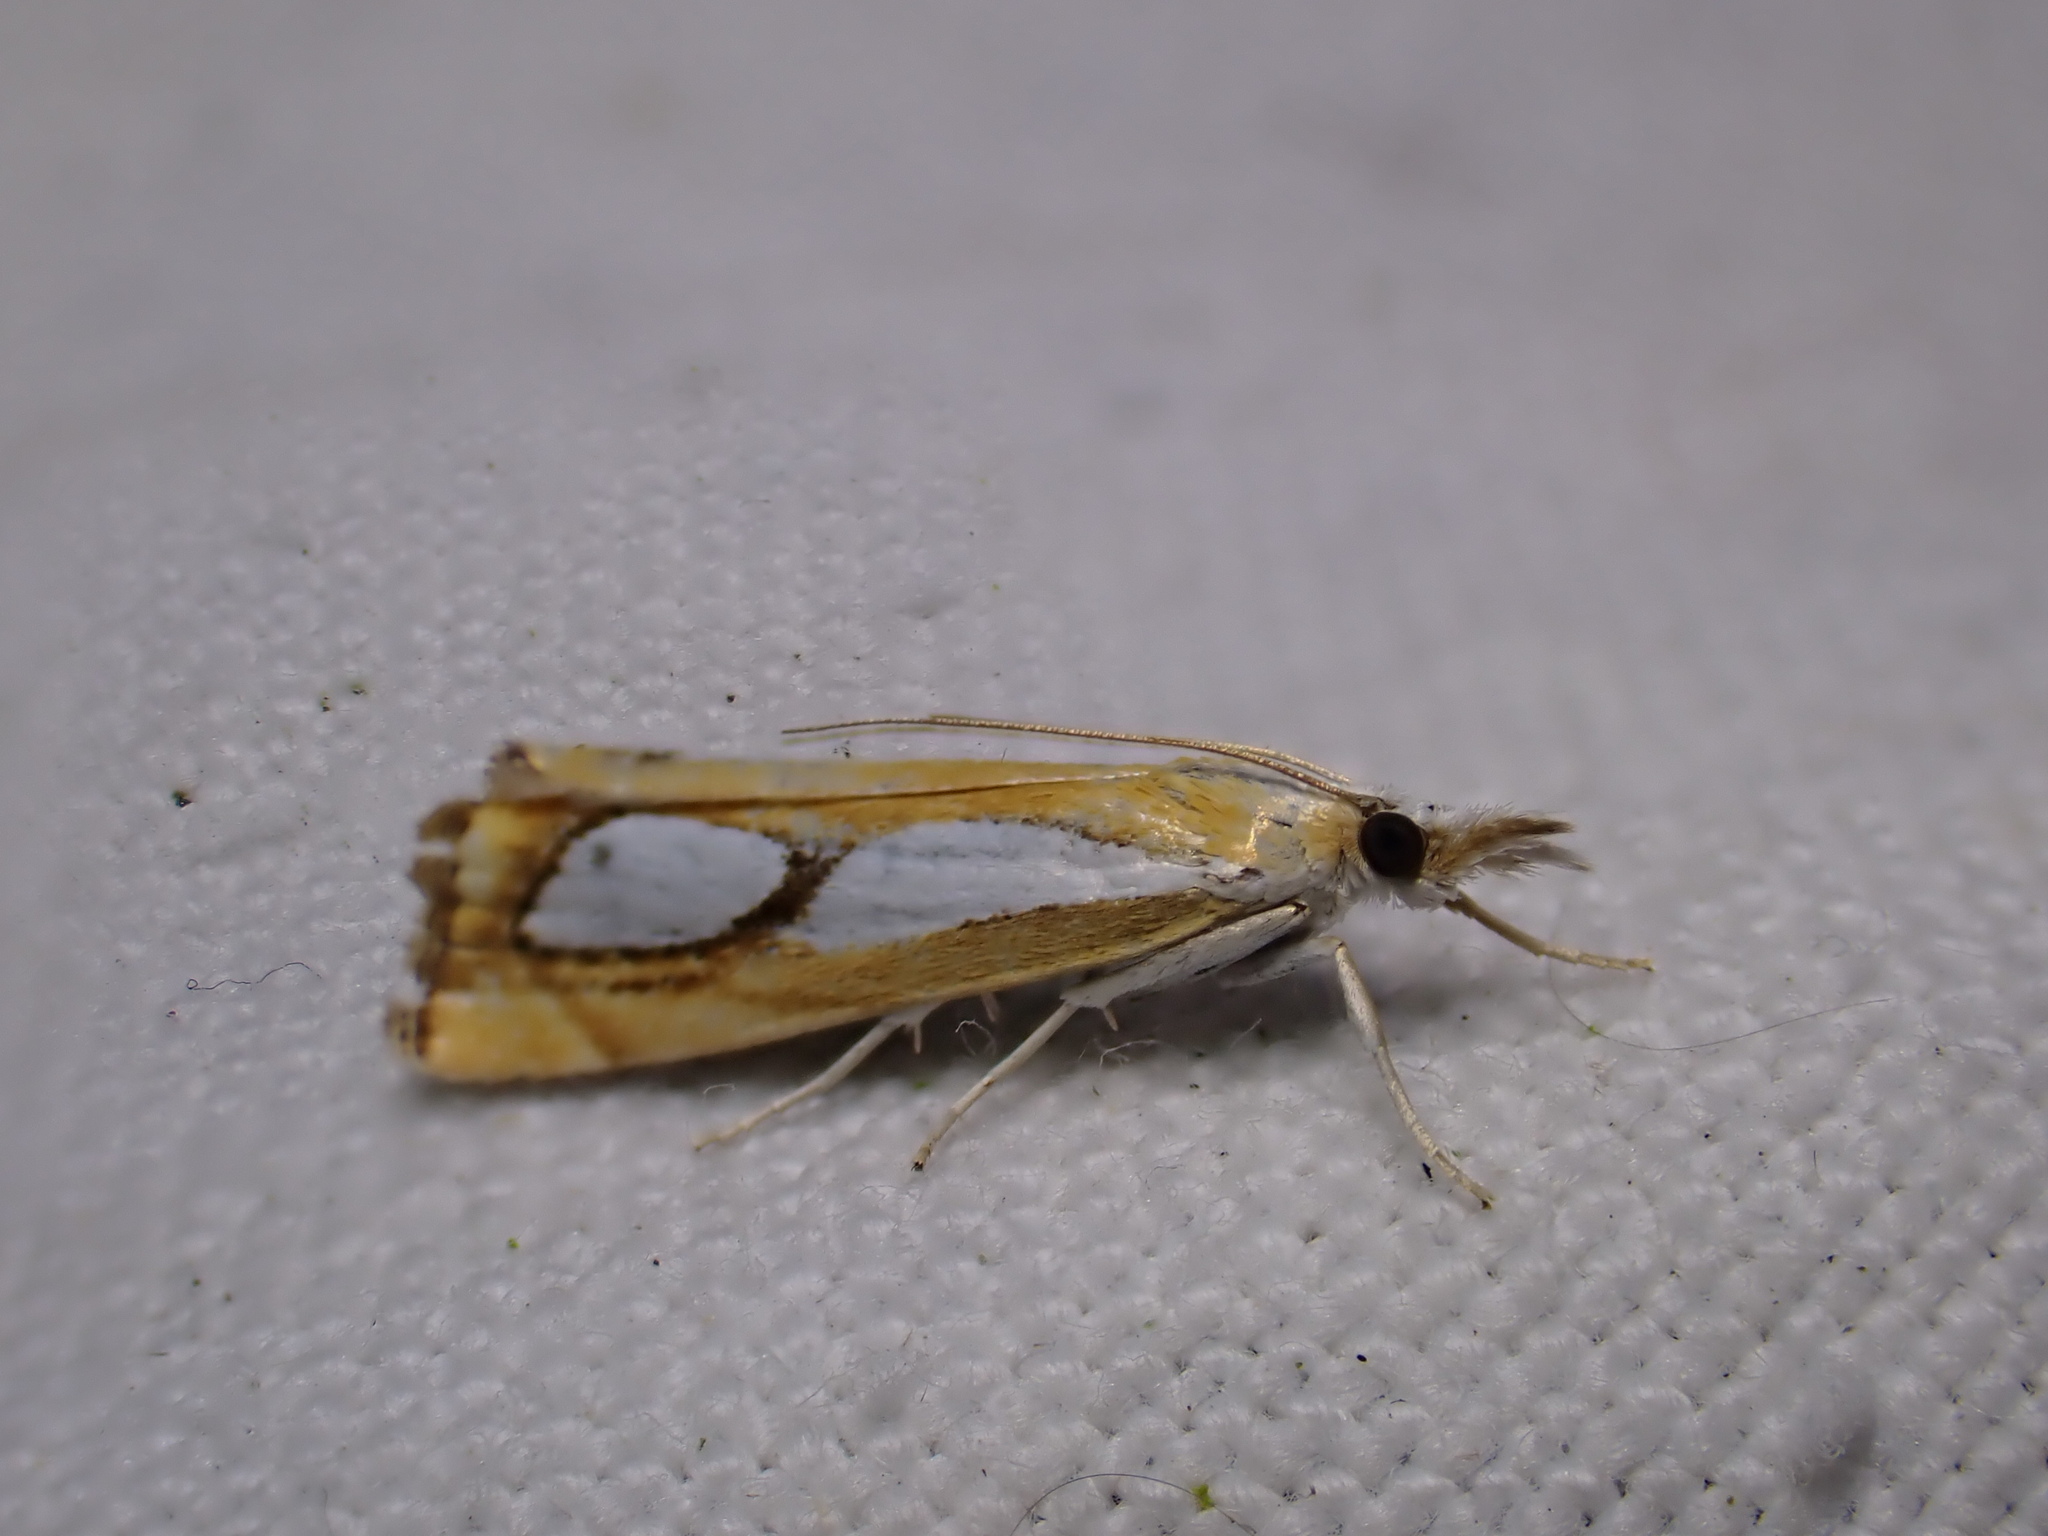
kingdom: Animalia
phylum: Arthropoda
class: Insecta
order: Lepidoptera
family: Crambidae
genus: Catoptria
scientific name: Catoptria pinella
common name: Pearl grass-veneer
